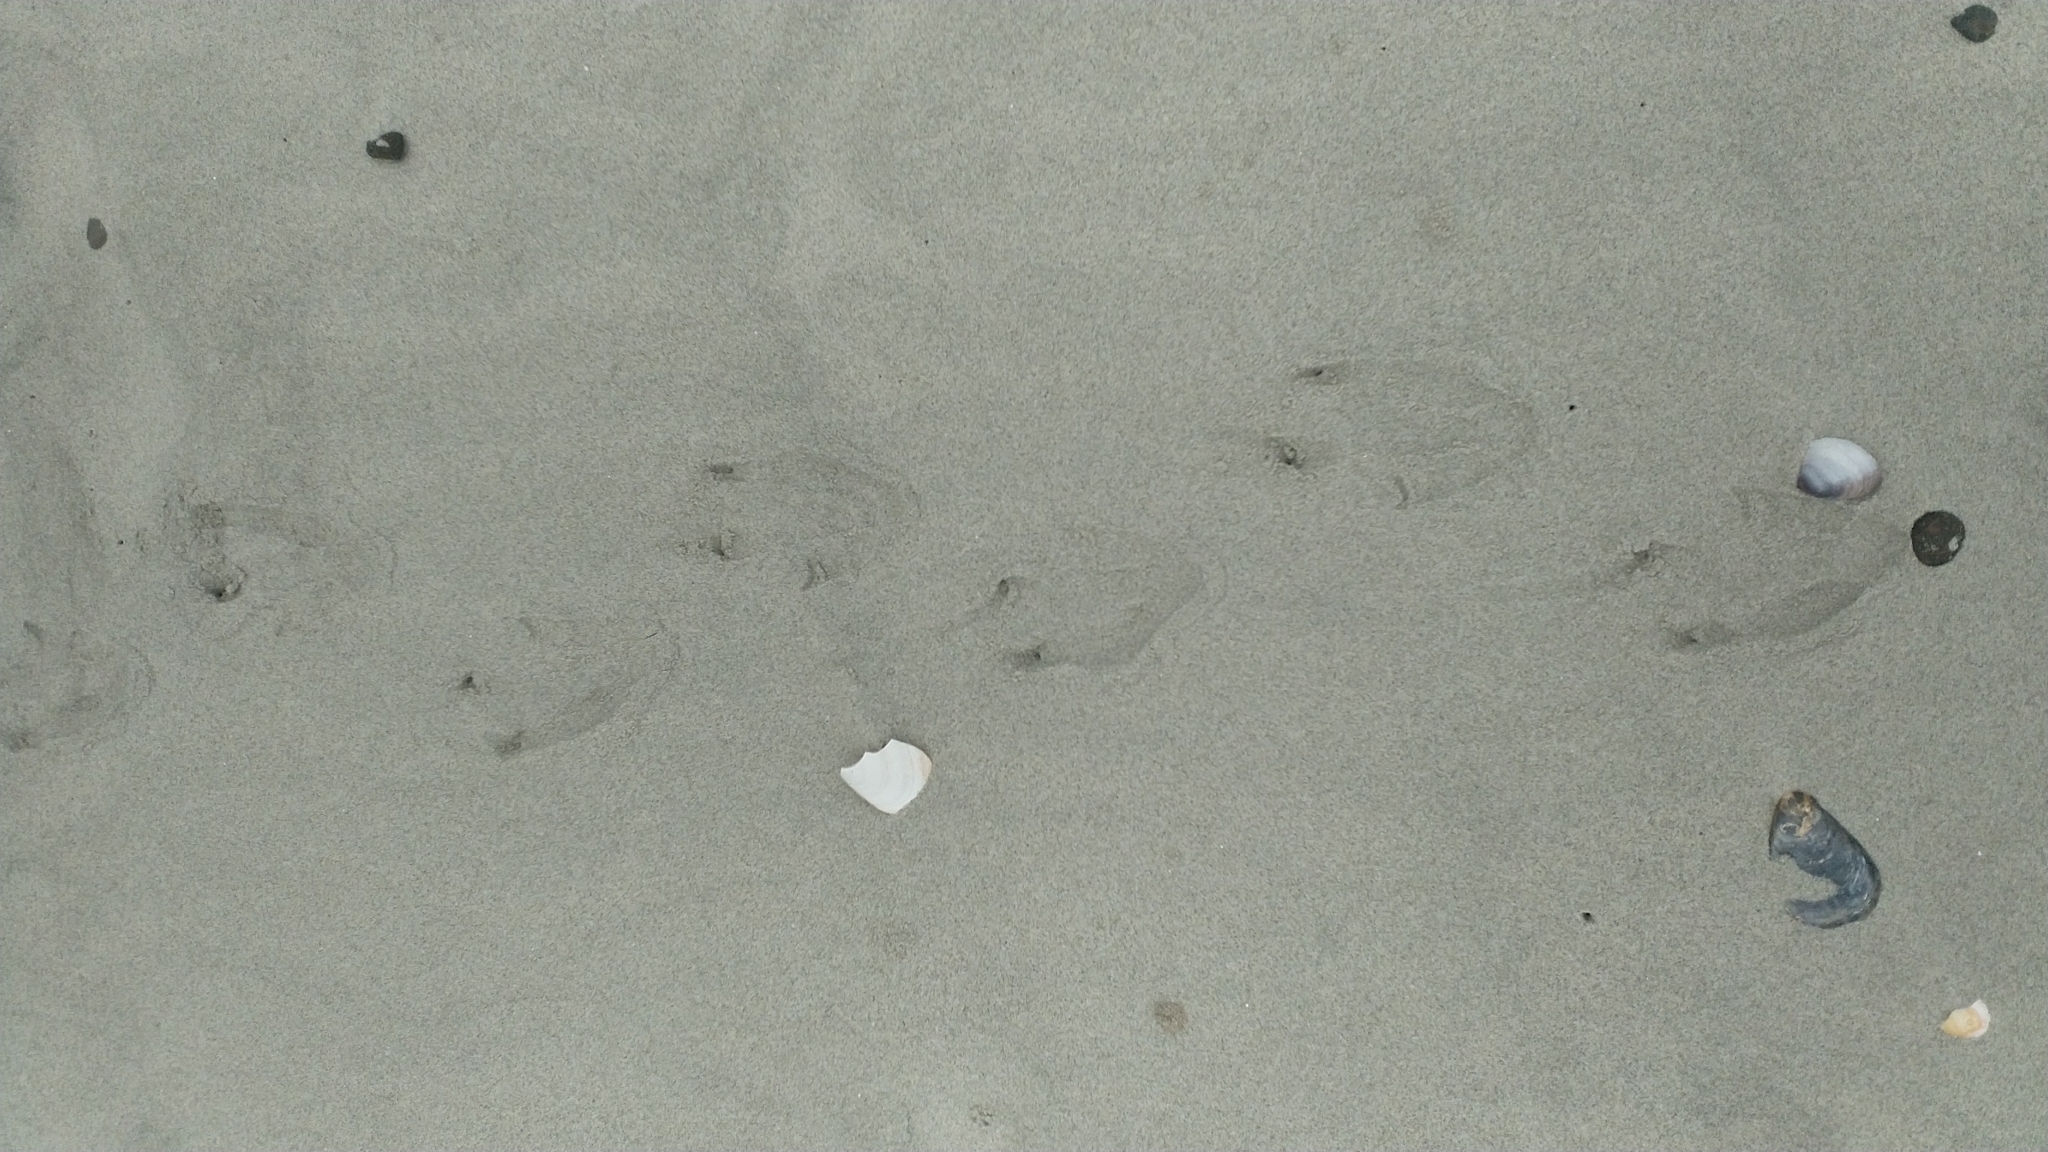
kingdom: Animalia
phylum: Chordata
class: Aves
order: Sphenisciformes
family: Spheniscidae
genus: Megadyptes
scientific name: Megadyptes antipodes
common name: Yellow-eyed penguin
